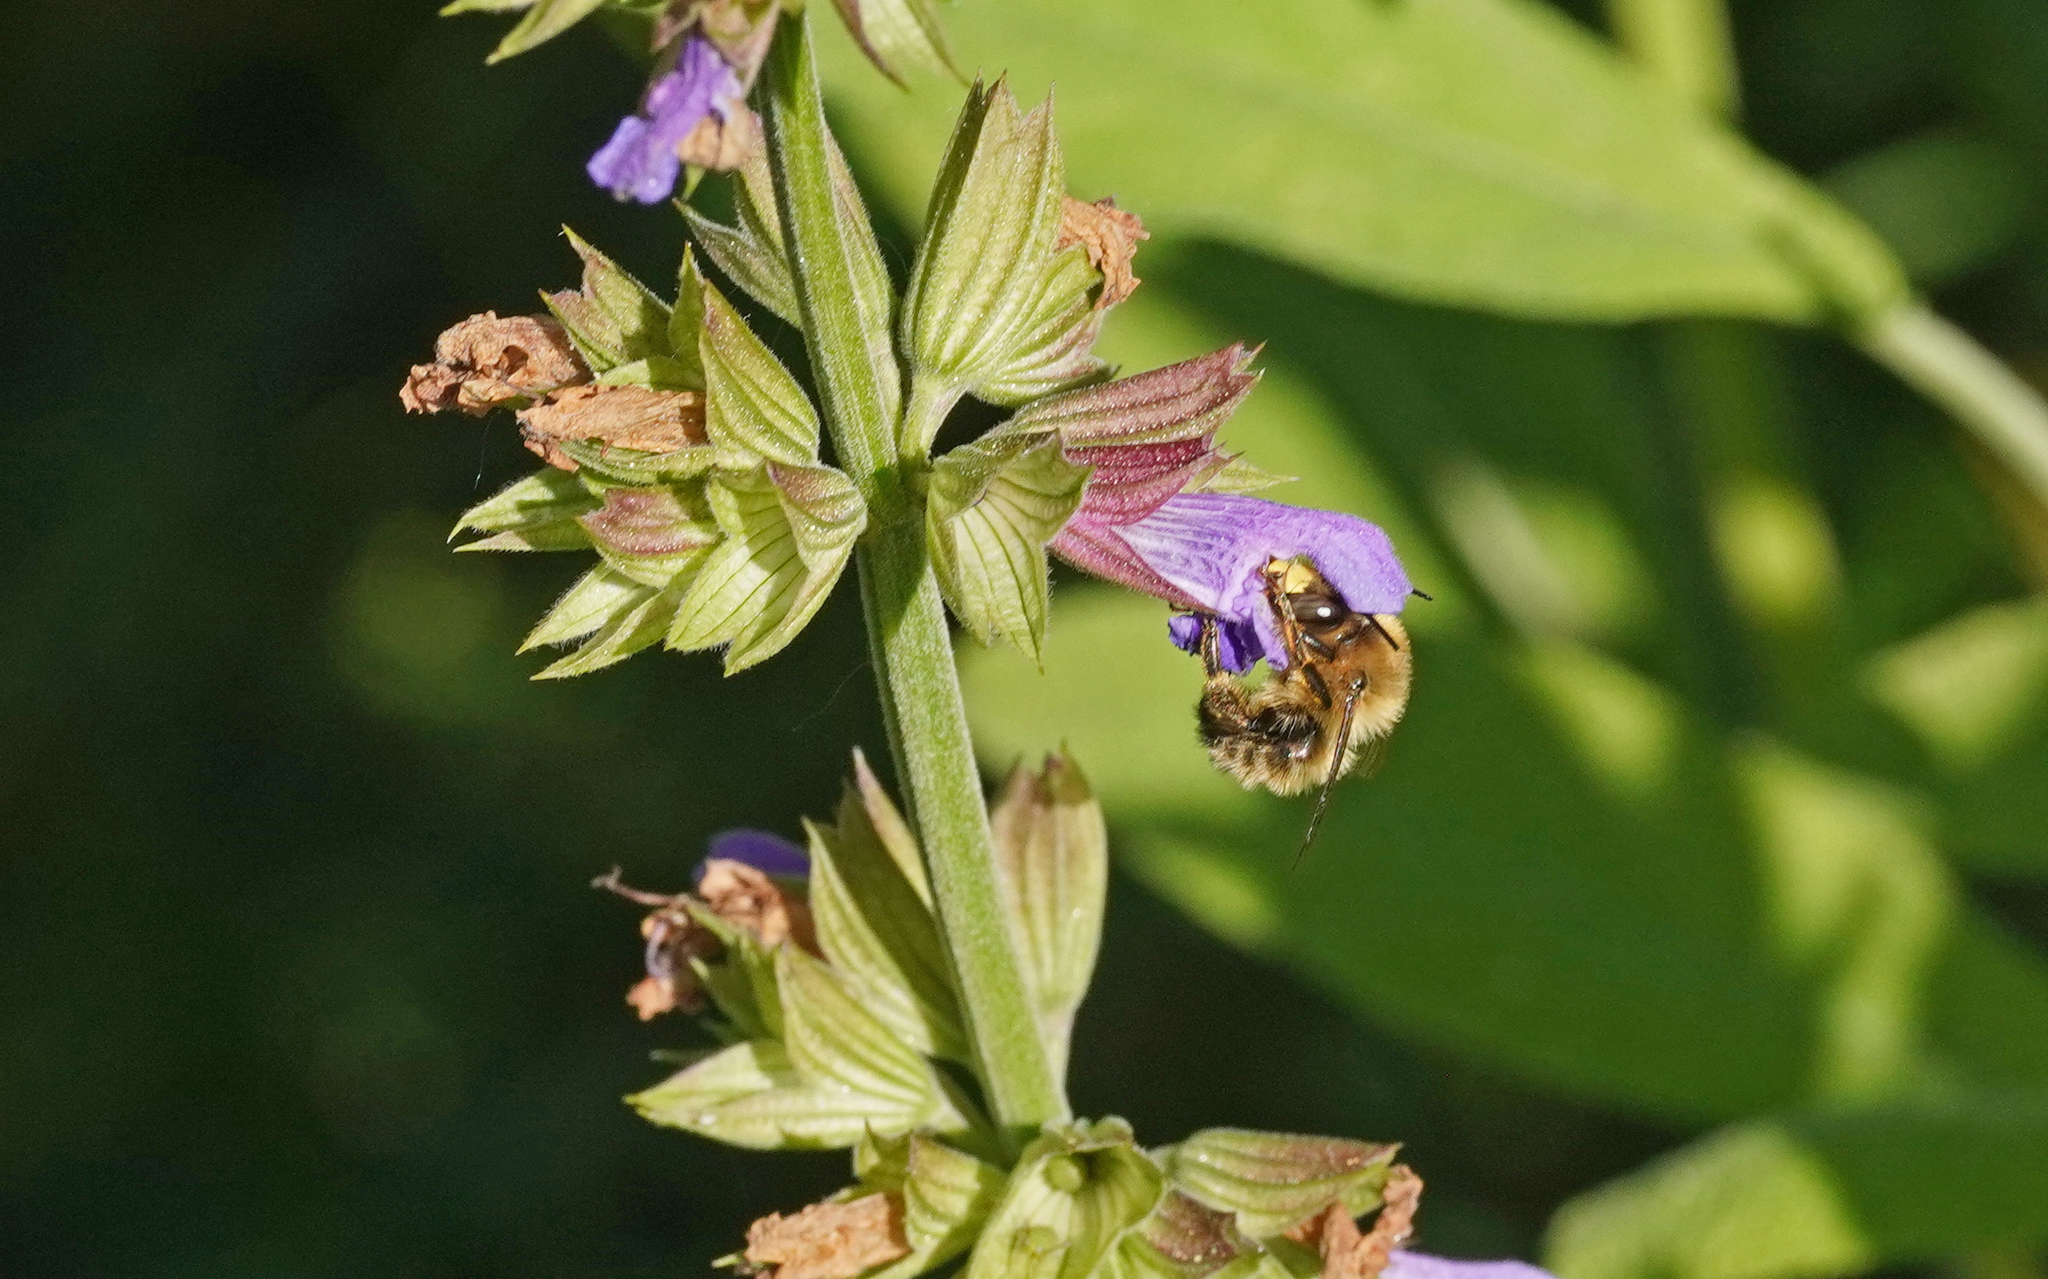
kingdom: Animalia
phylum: Arthropoda
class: Insecta
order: Hymenoptera
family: Apidae
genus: Anthophora
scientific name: Anthophora furcata
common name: Fork-tailed flower bee
